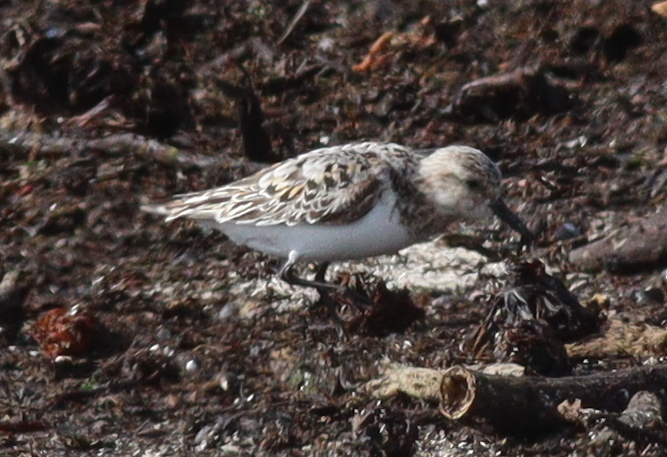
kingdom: Animalia
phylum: Chordata
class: Aves
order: Charadriiformes
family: Scolopacidae
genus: Calidris
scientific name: Calidris alba
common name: Sanderling
